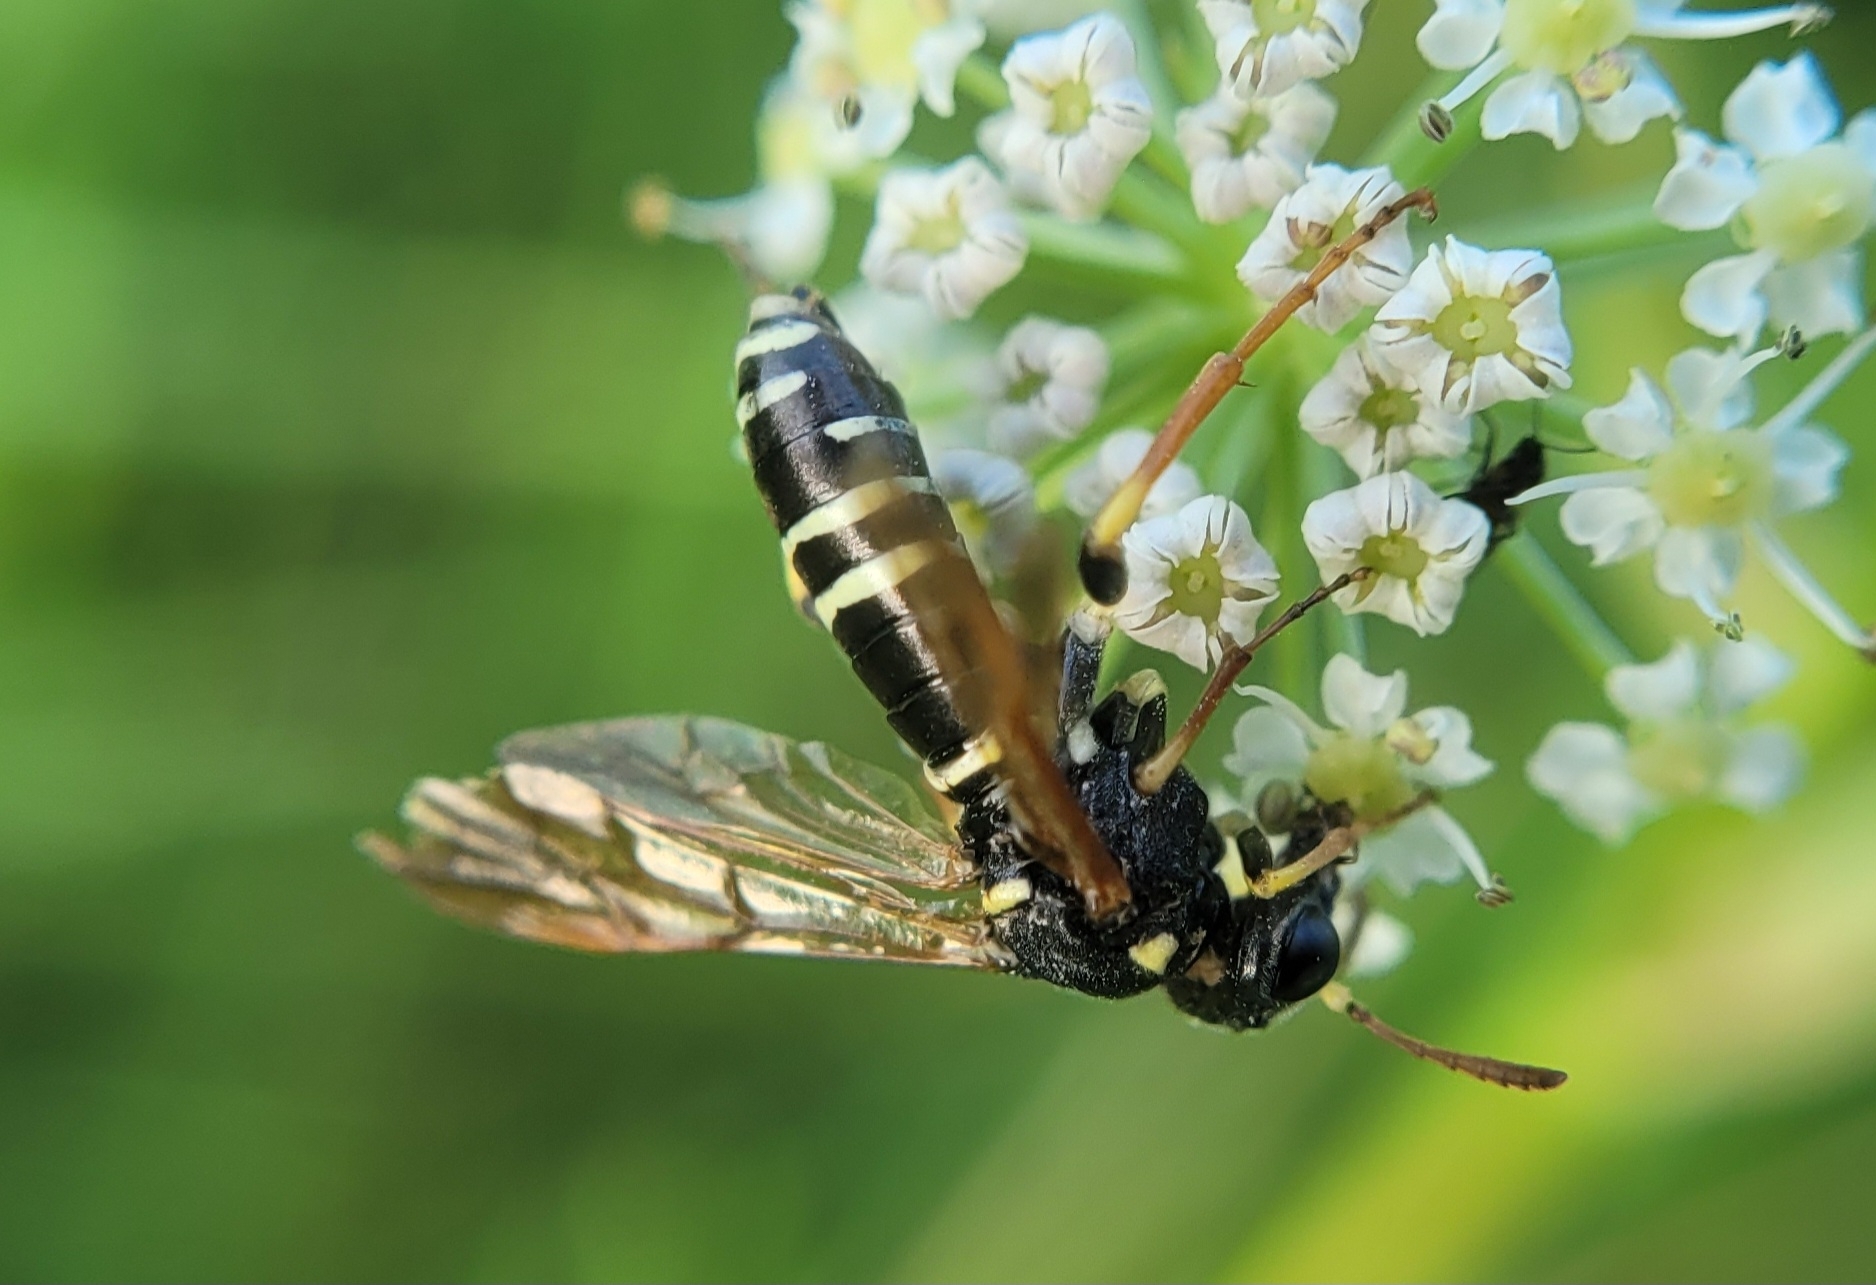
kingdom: Animalia
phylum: Arthropoda
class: Insecta
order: Hymenoptera
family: Tenthredinidae
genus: Tenthredo
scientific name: Tenthredo omissa
